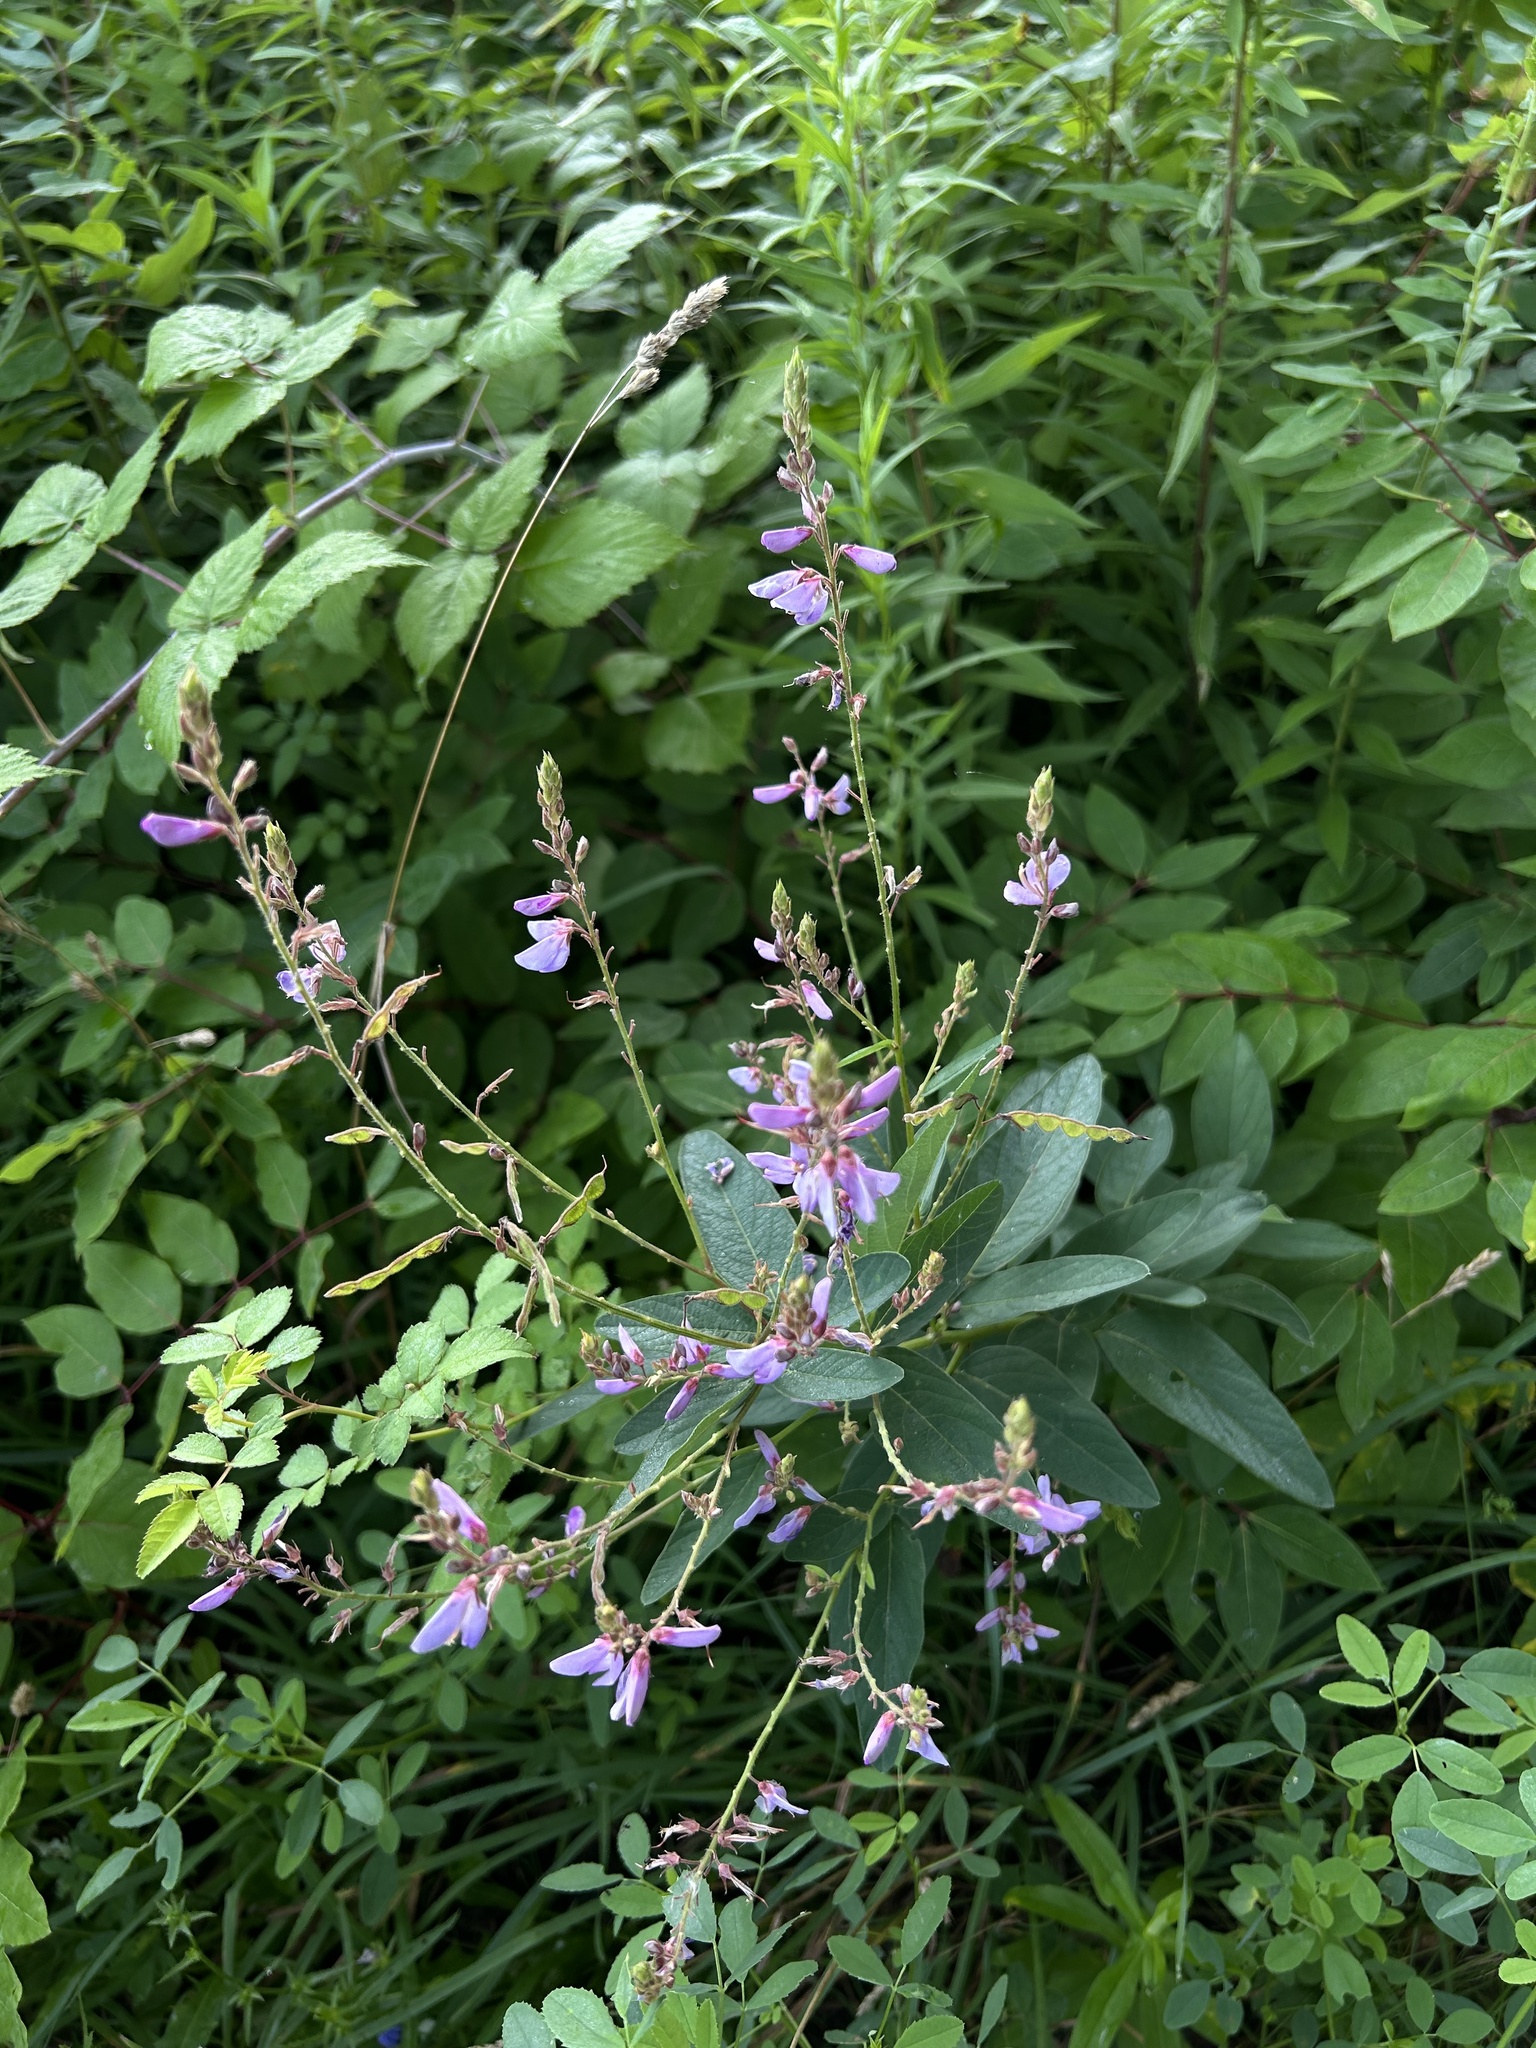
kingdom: Plantae
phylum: Tracheophyta
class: Magnoliopsida
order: Fabales
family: Fabaceae
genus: Desmodium
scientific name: Desmodium canadense
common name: Canada tick-trefoil
